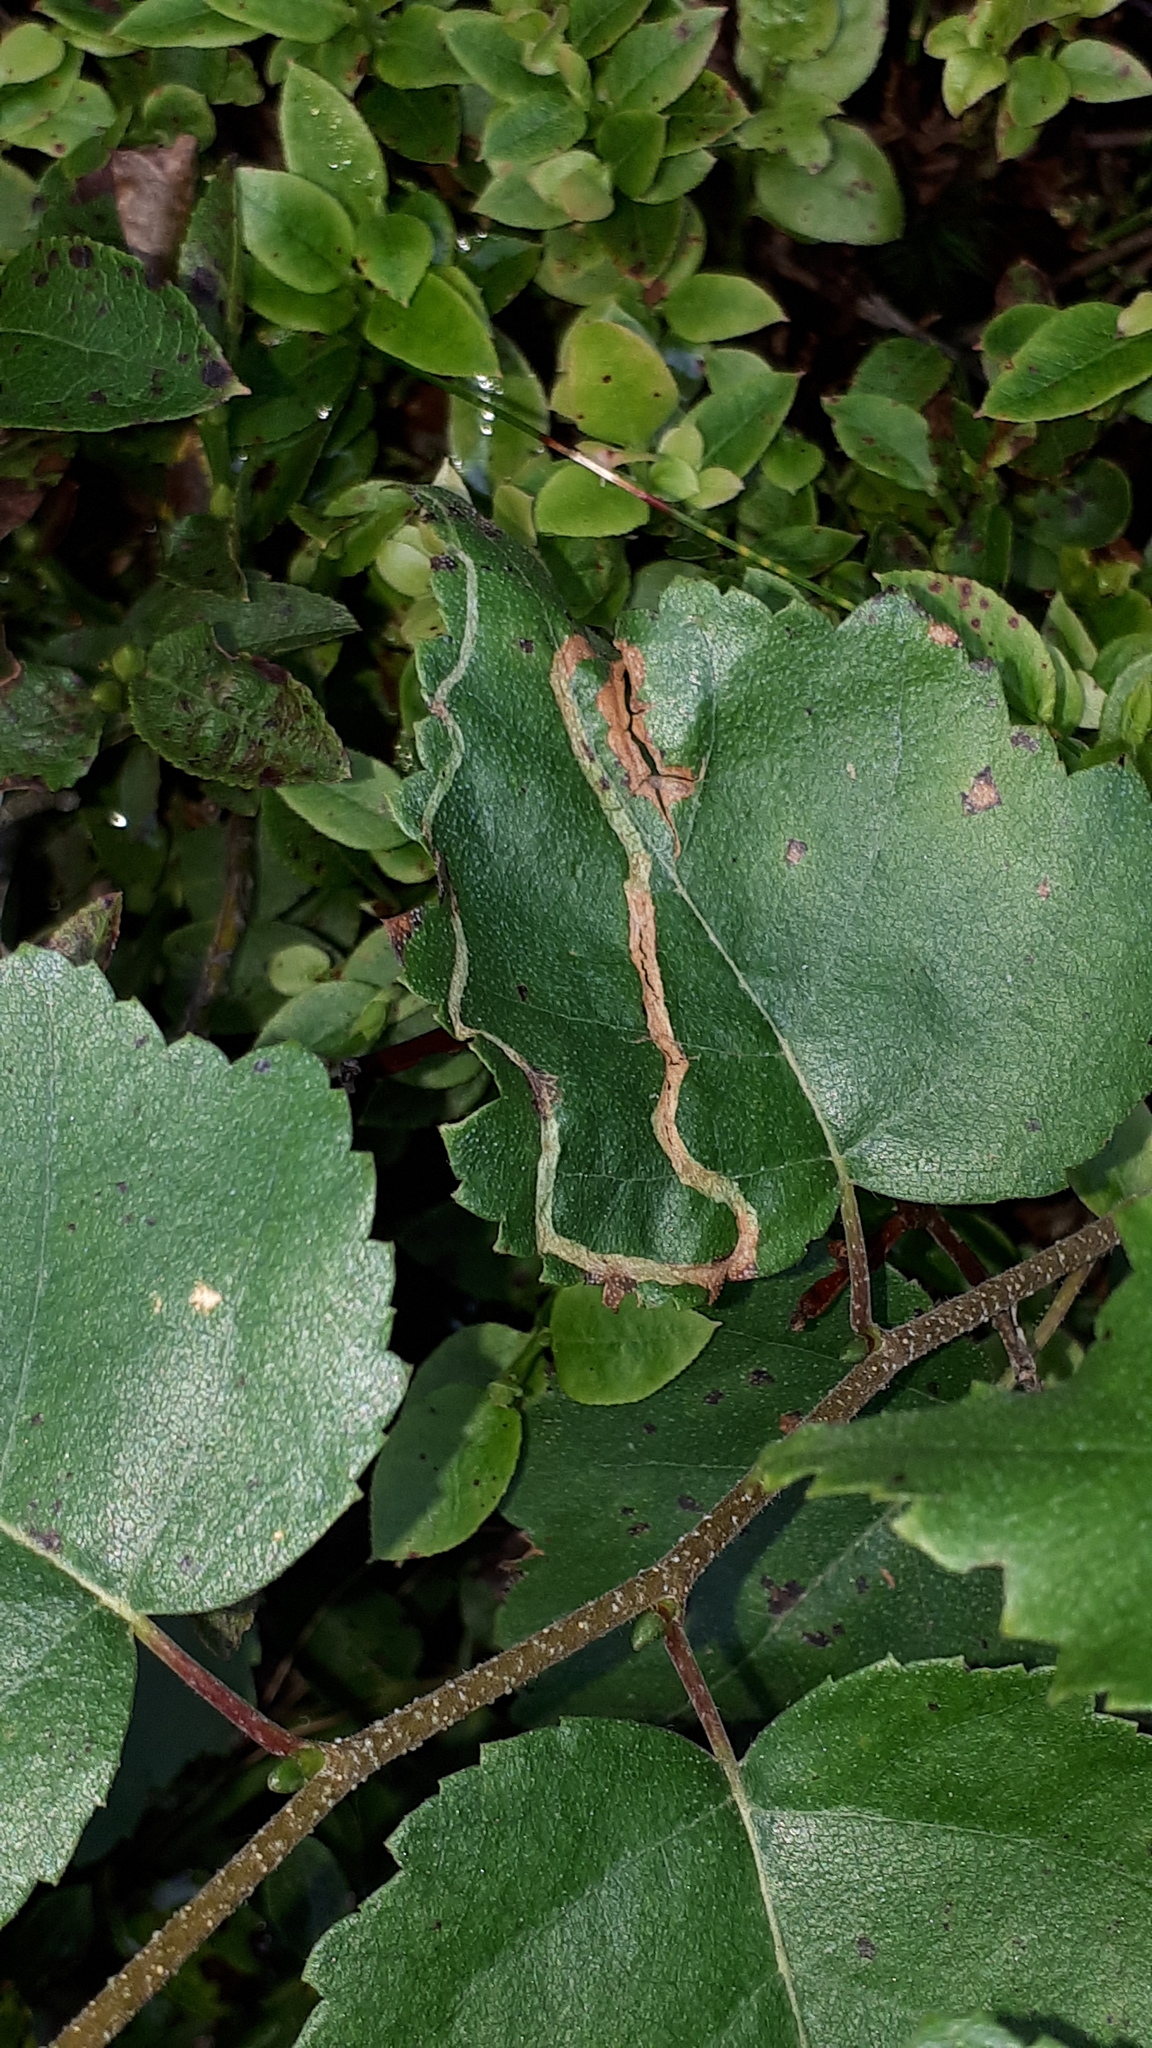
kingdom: Animalia
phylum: Arthropoda
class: Insecta
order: Diptera
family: Agromyzidae
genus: Agromyza
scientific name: Agromyza alnibetulae
